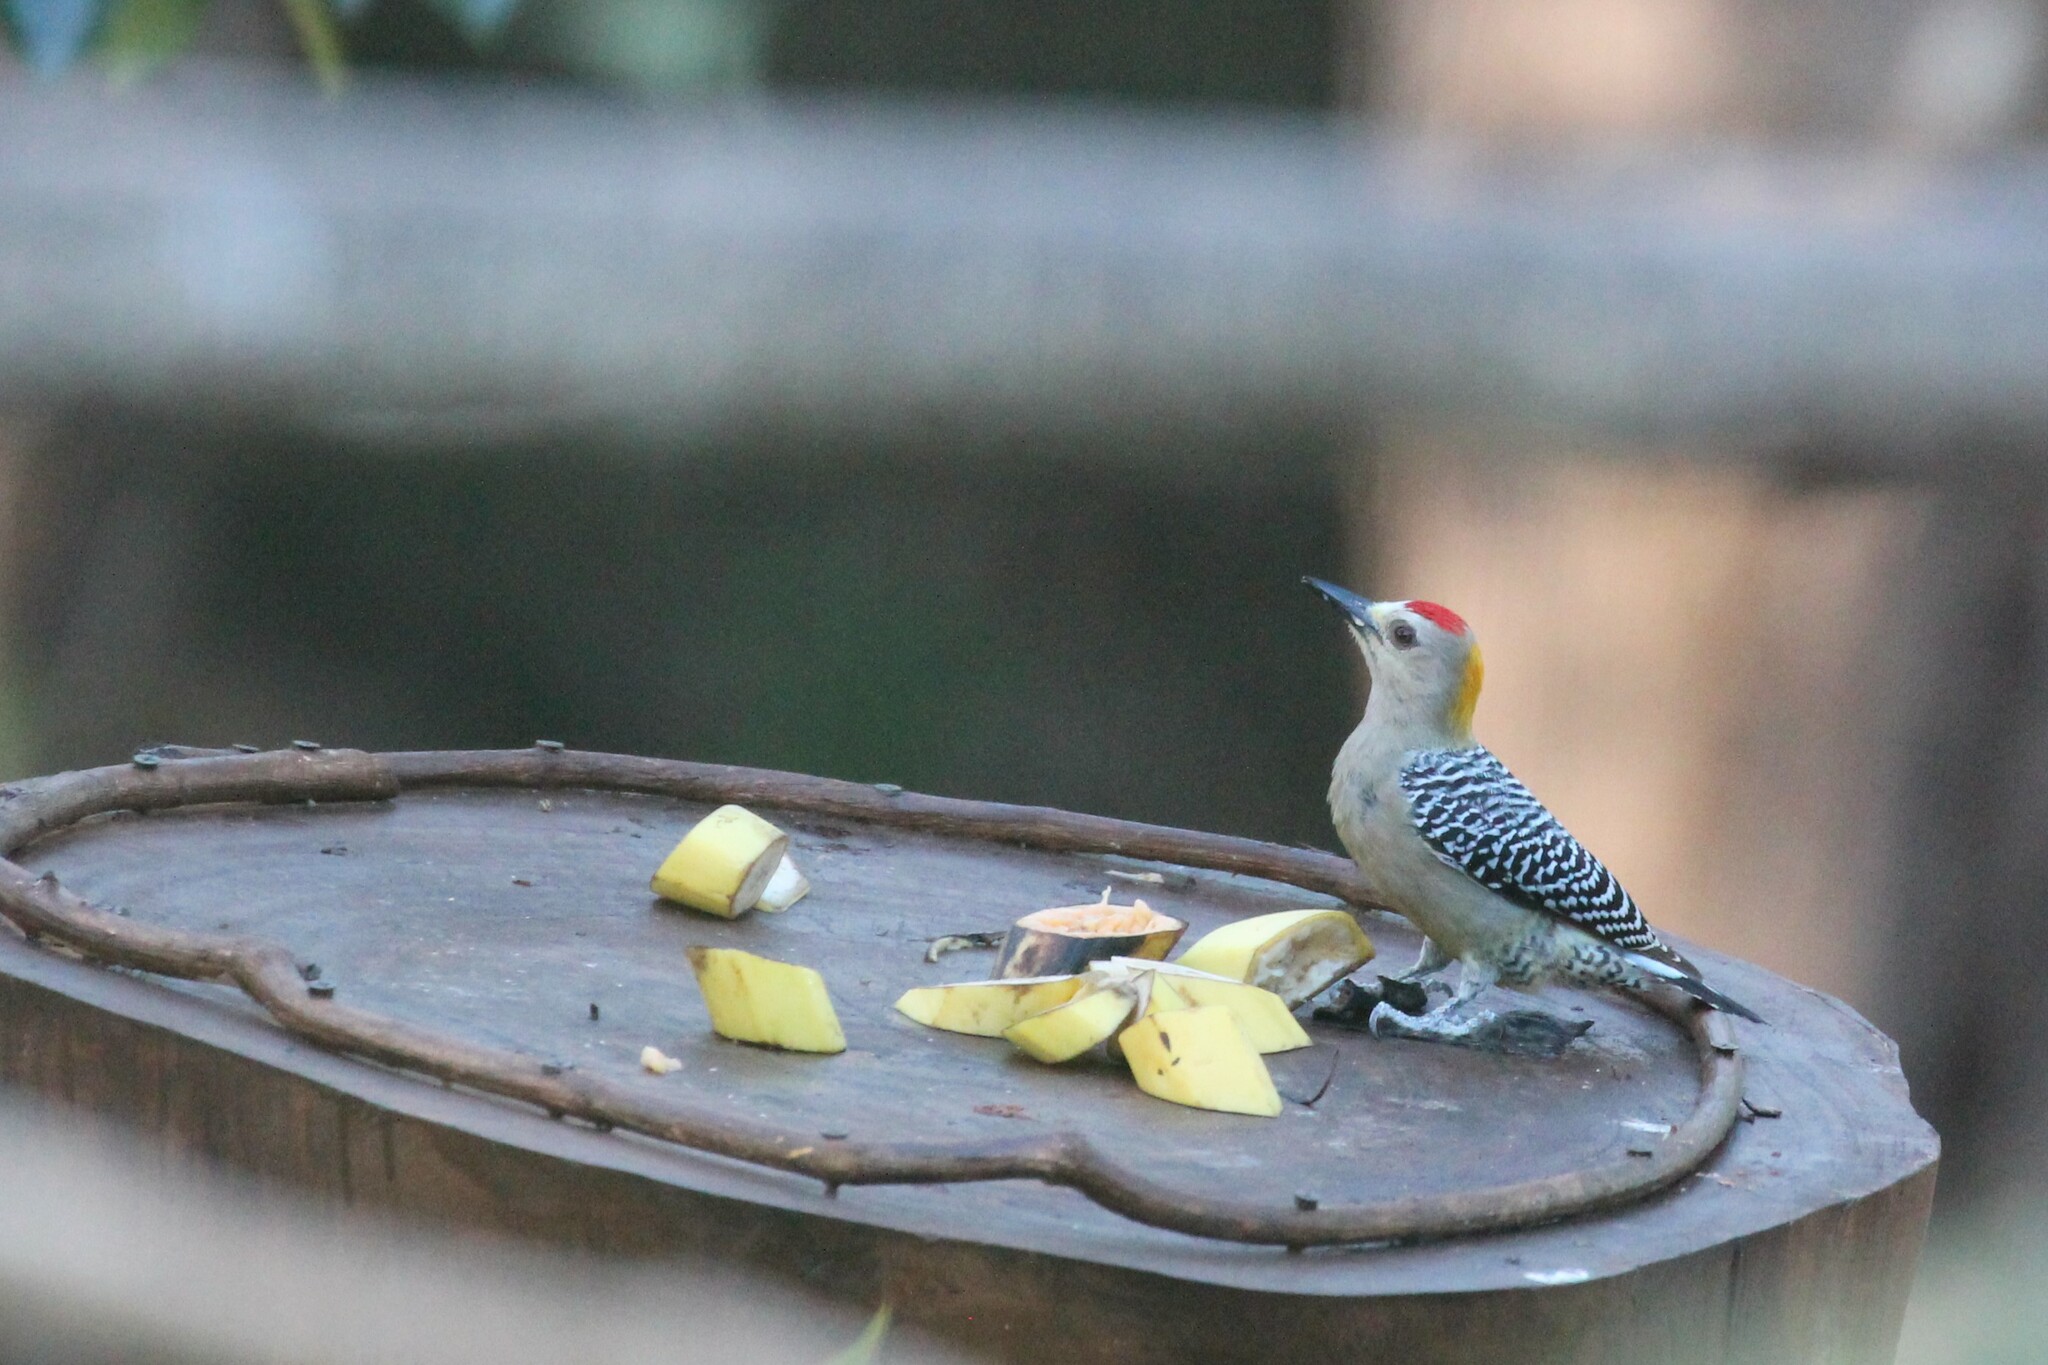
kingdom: Animalia
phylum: Chordata
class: Aves
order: Piciformes
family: Picidae
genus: Melanerpes
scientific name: Melanerpes hoffmannii
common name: Hoffmann's woodpecker
